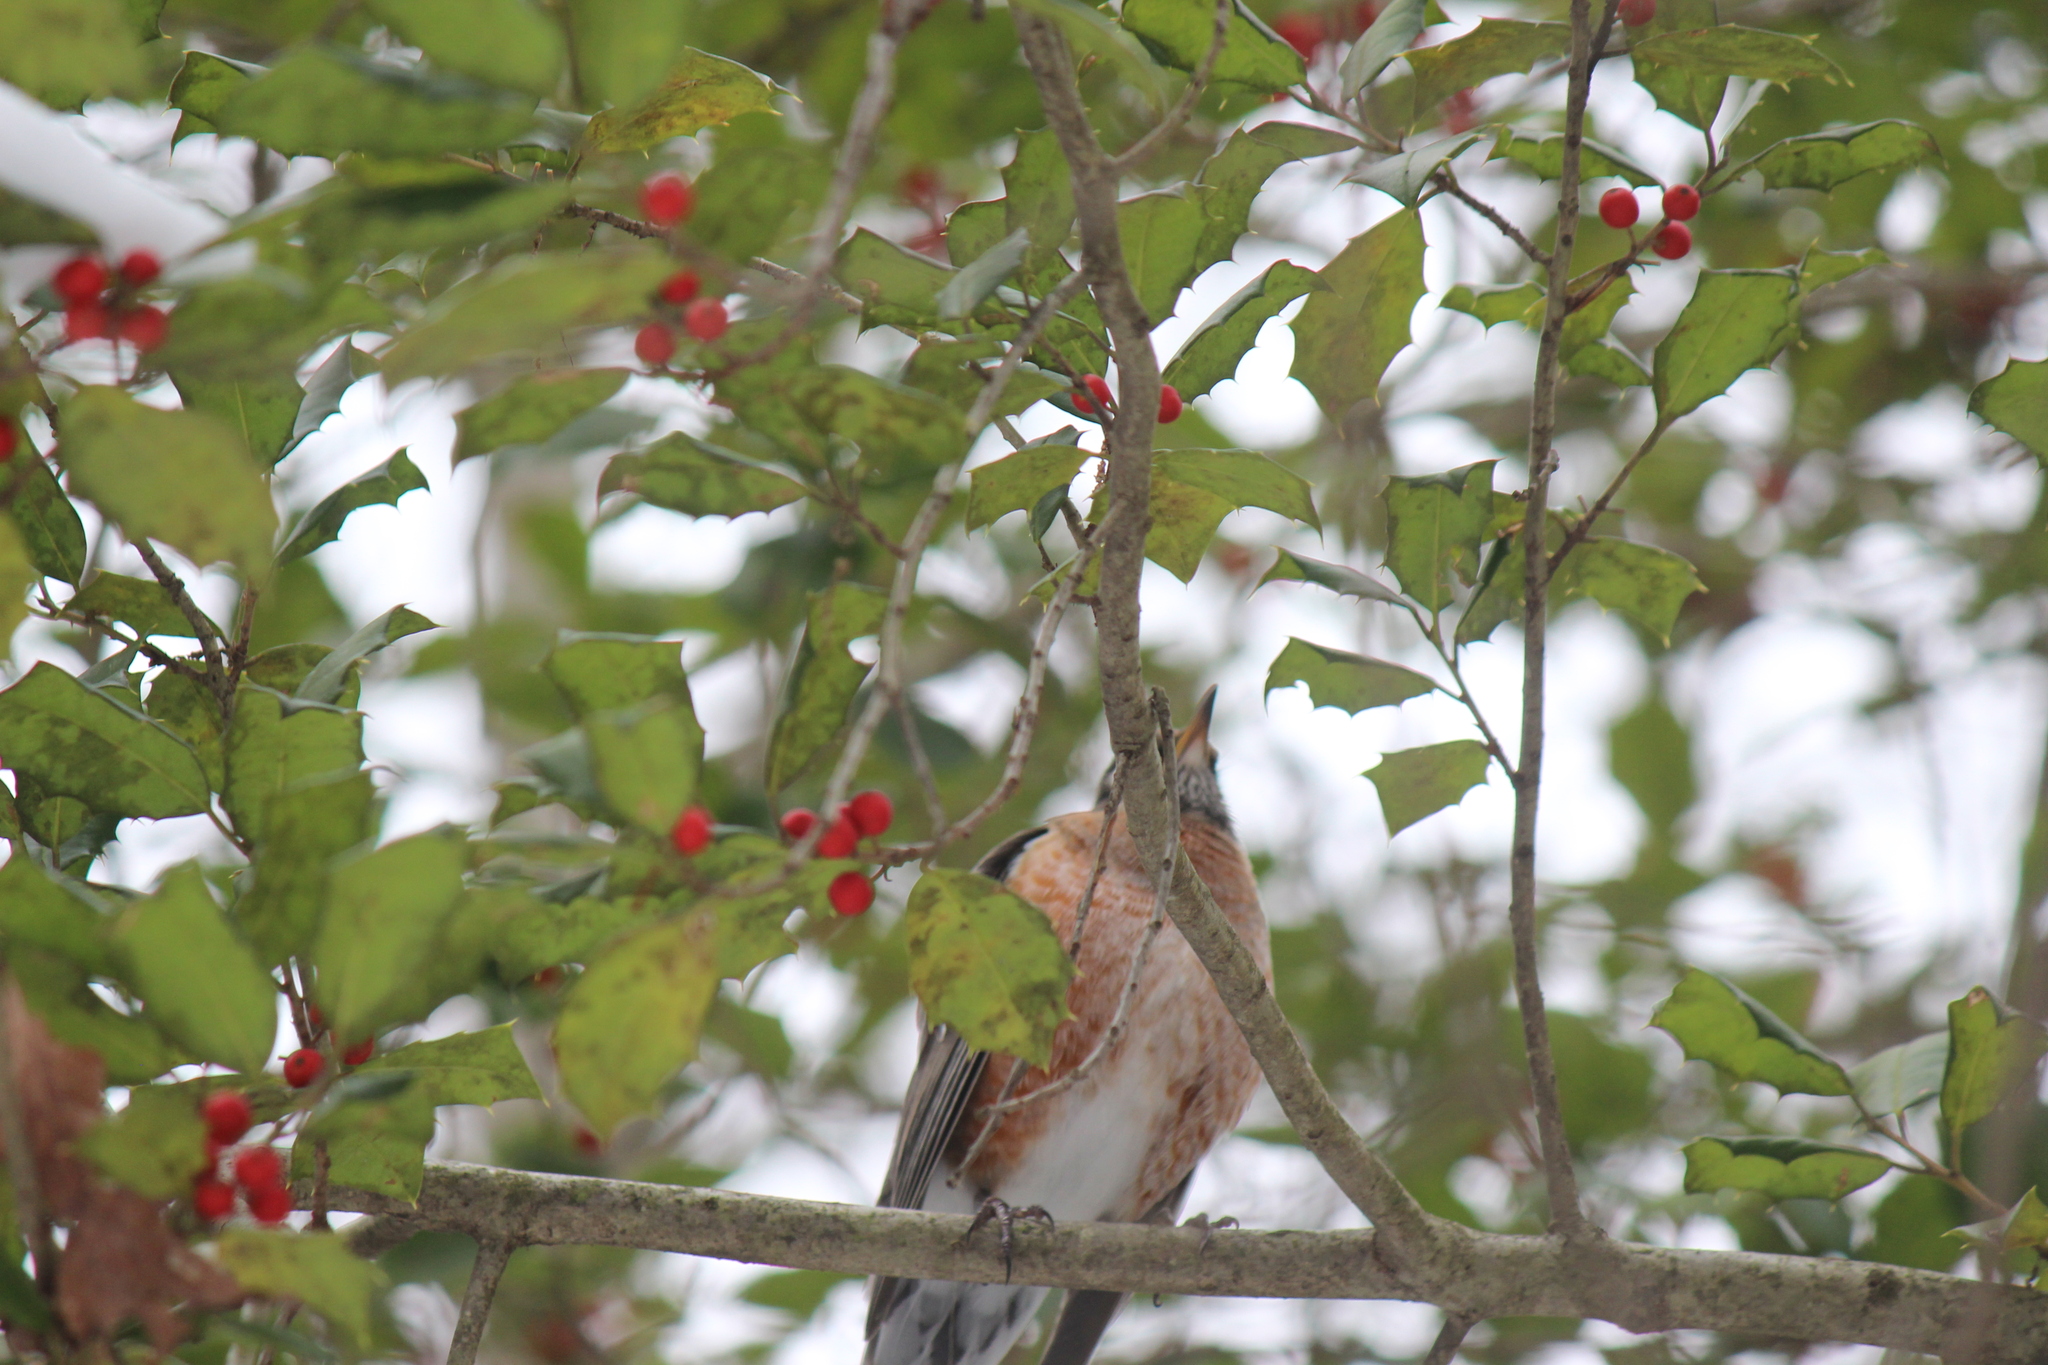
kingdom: Plantae
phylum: Tracheophyta
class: Magnoliopsida
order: Aquifoliales
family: Aquifoliaceae
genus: Ilex
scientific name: Ilex opaca
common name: American holly
